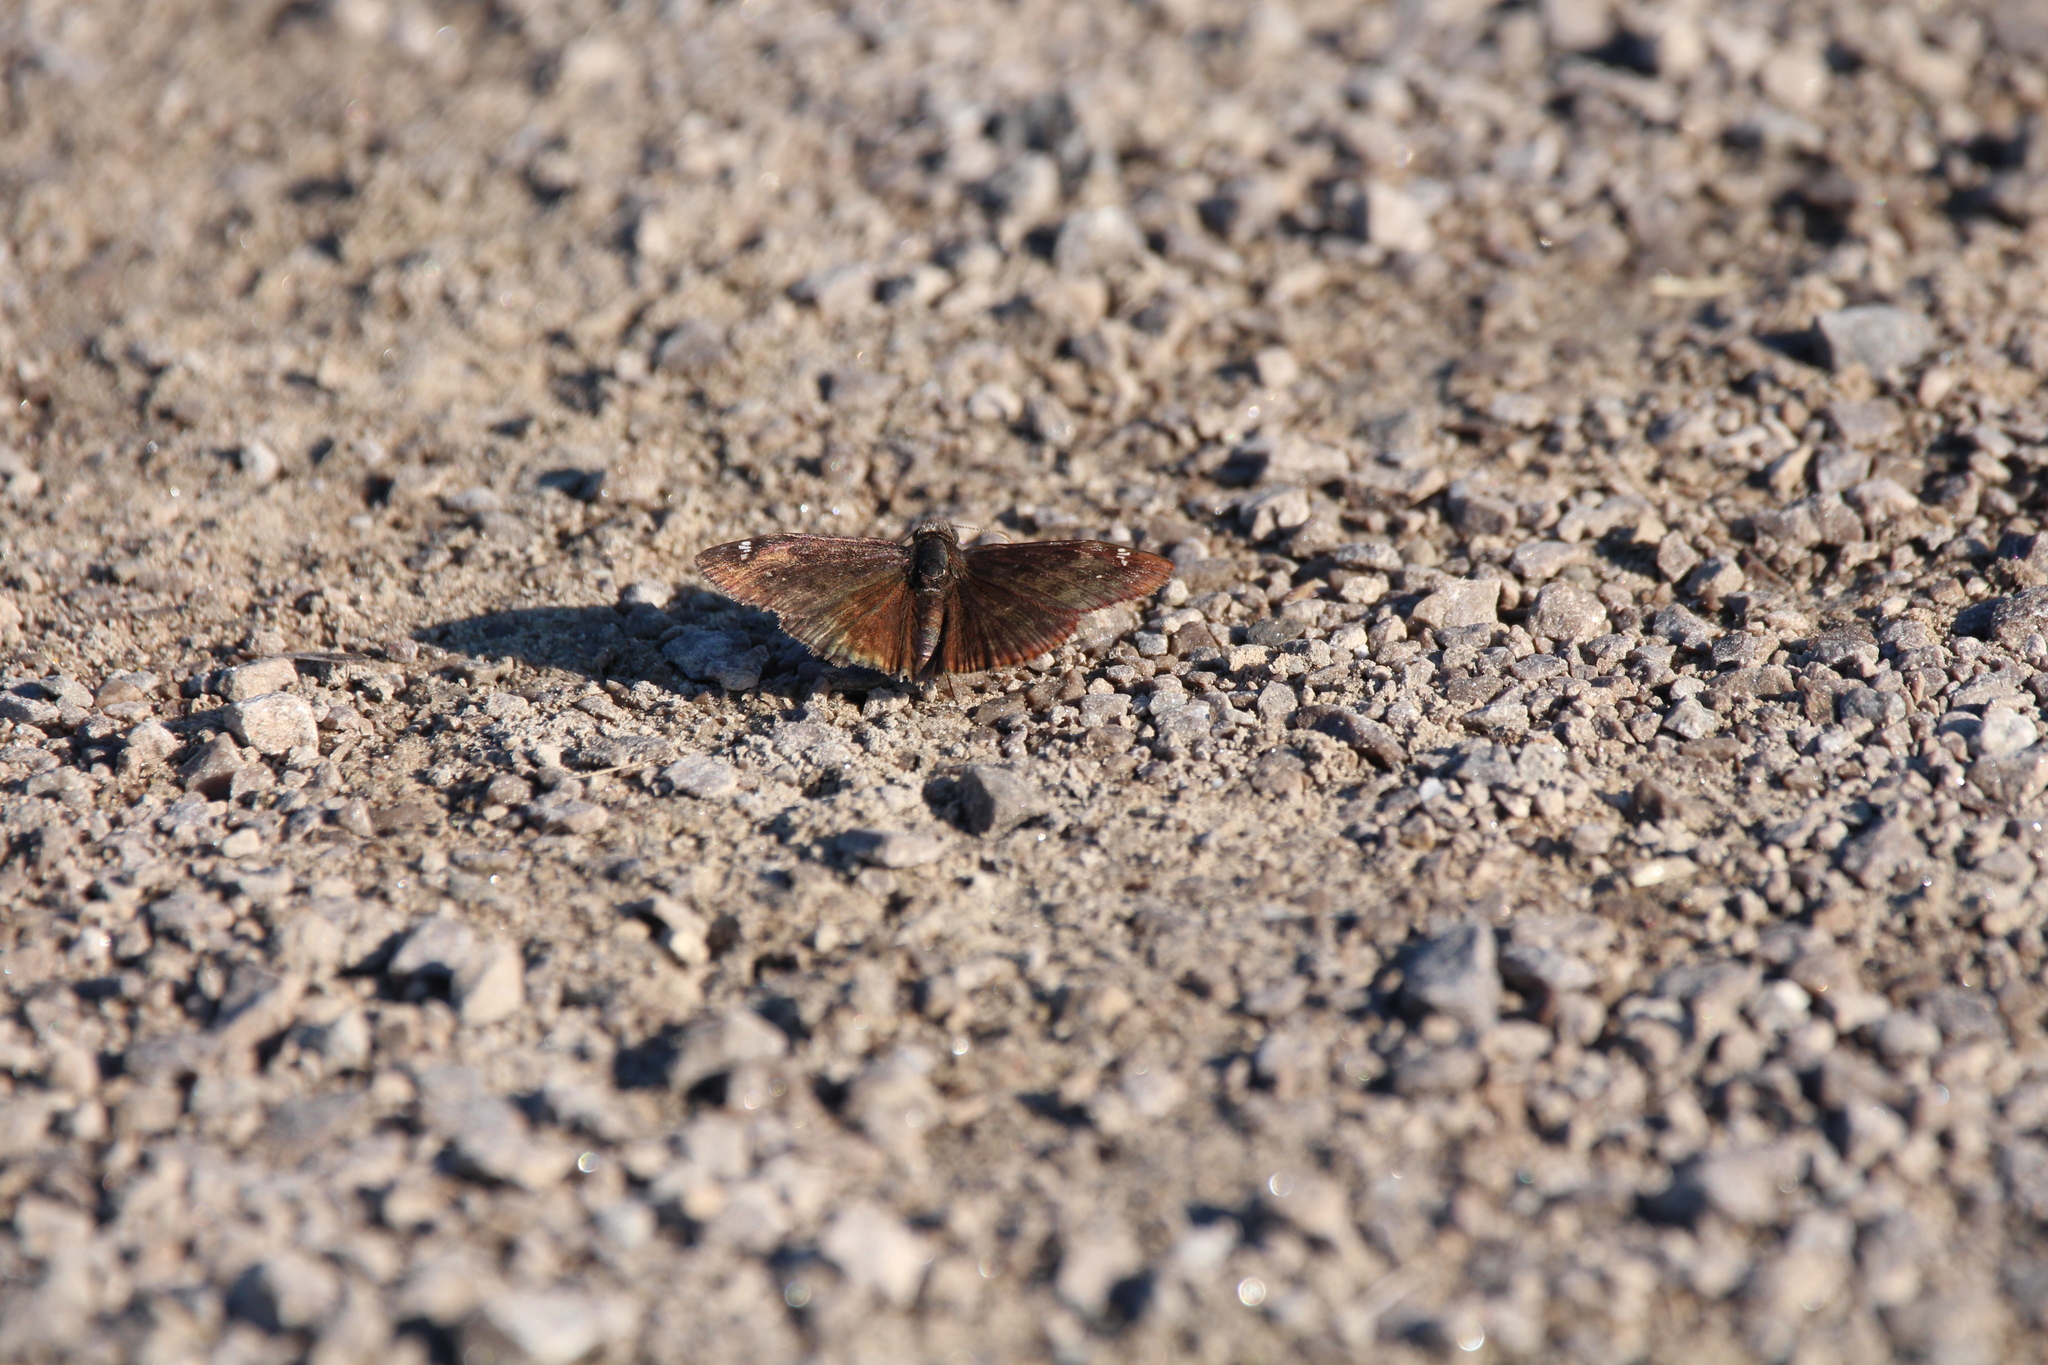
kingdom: Animalia
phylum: Arthropoda
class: Insecta
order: Lepidoptera
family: Hesperiidae
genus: Erynnis
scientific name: Erynnis baptisiae
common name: Wild indigo duskywing
